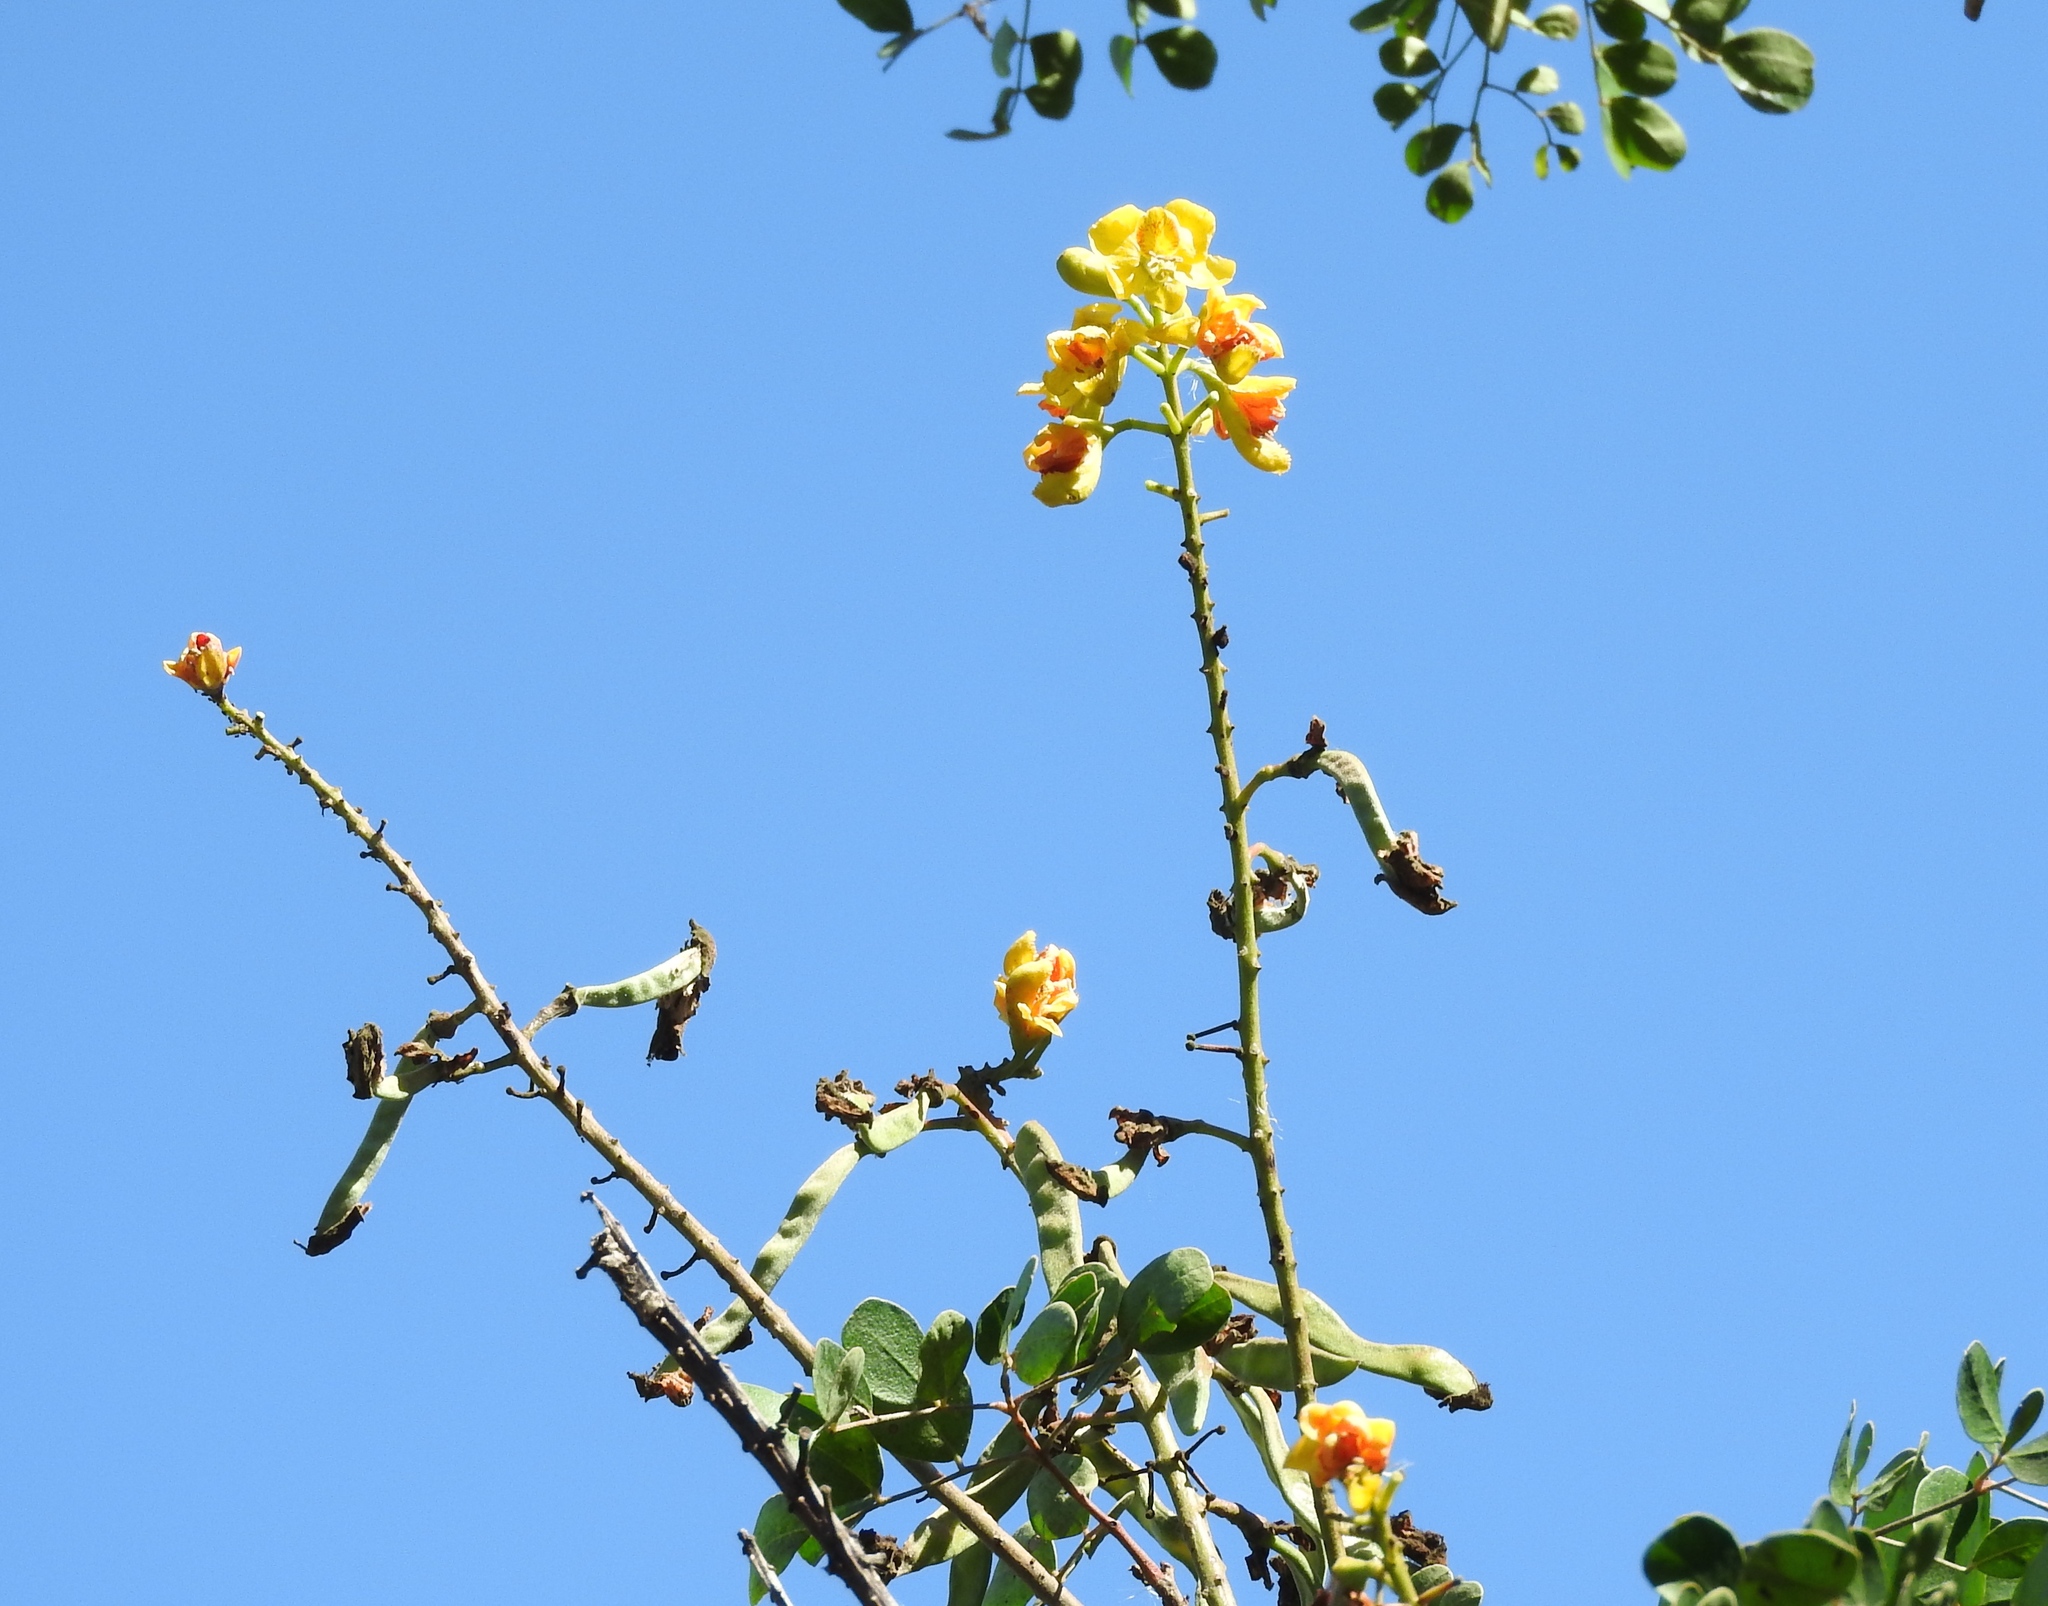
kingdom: Plantae
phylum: Tracheophyta
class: Magnoliopsida
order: Fabales
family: Fabaceae
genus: Tara
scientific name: Tara cacalaco
